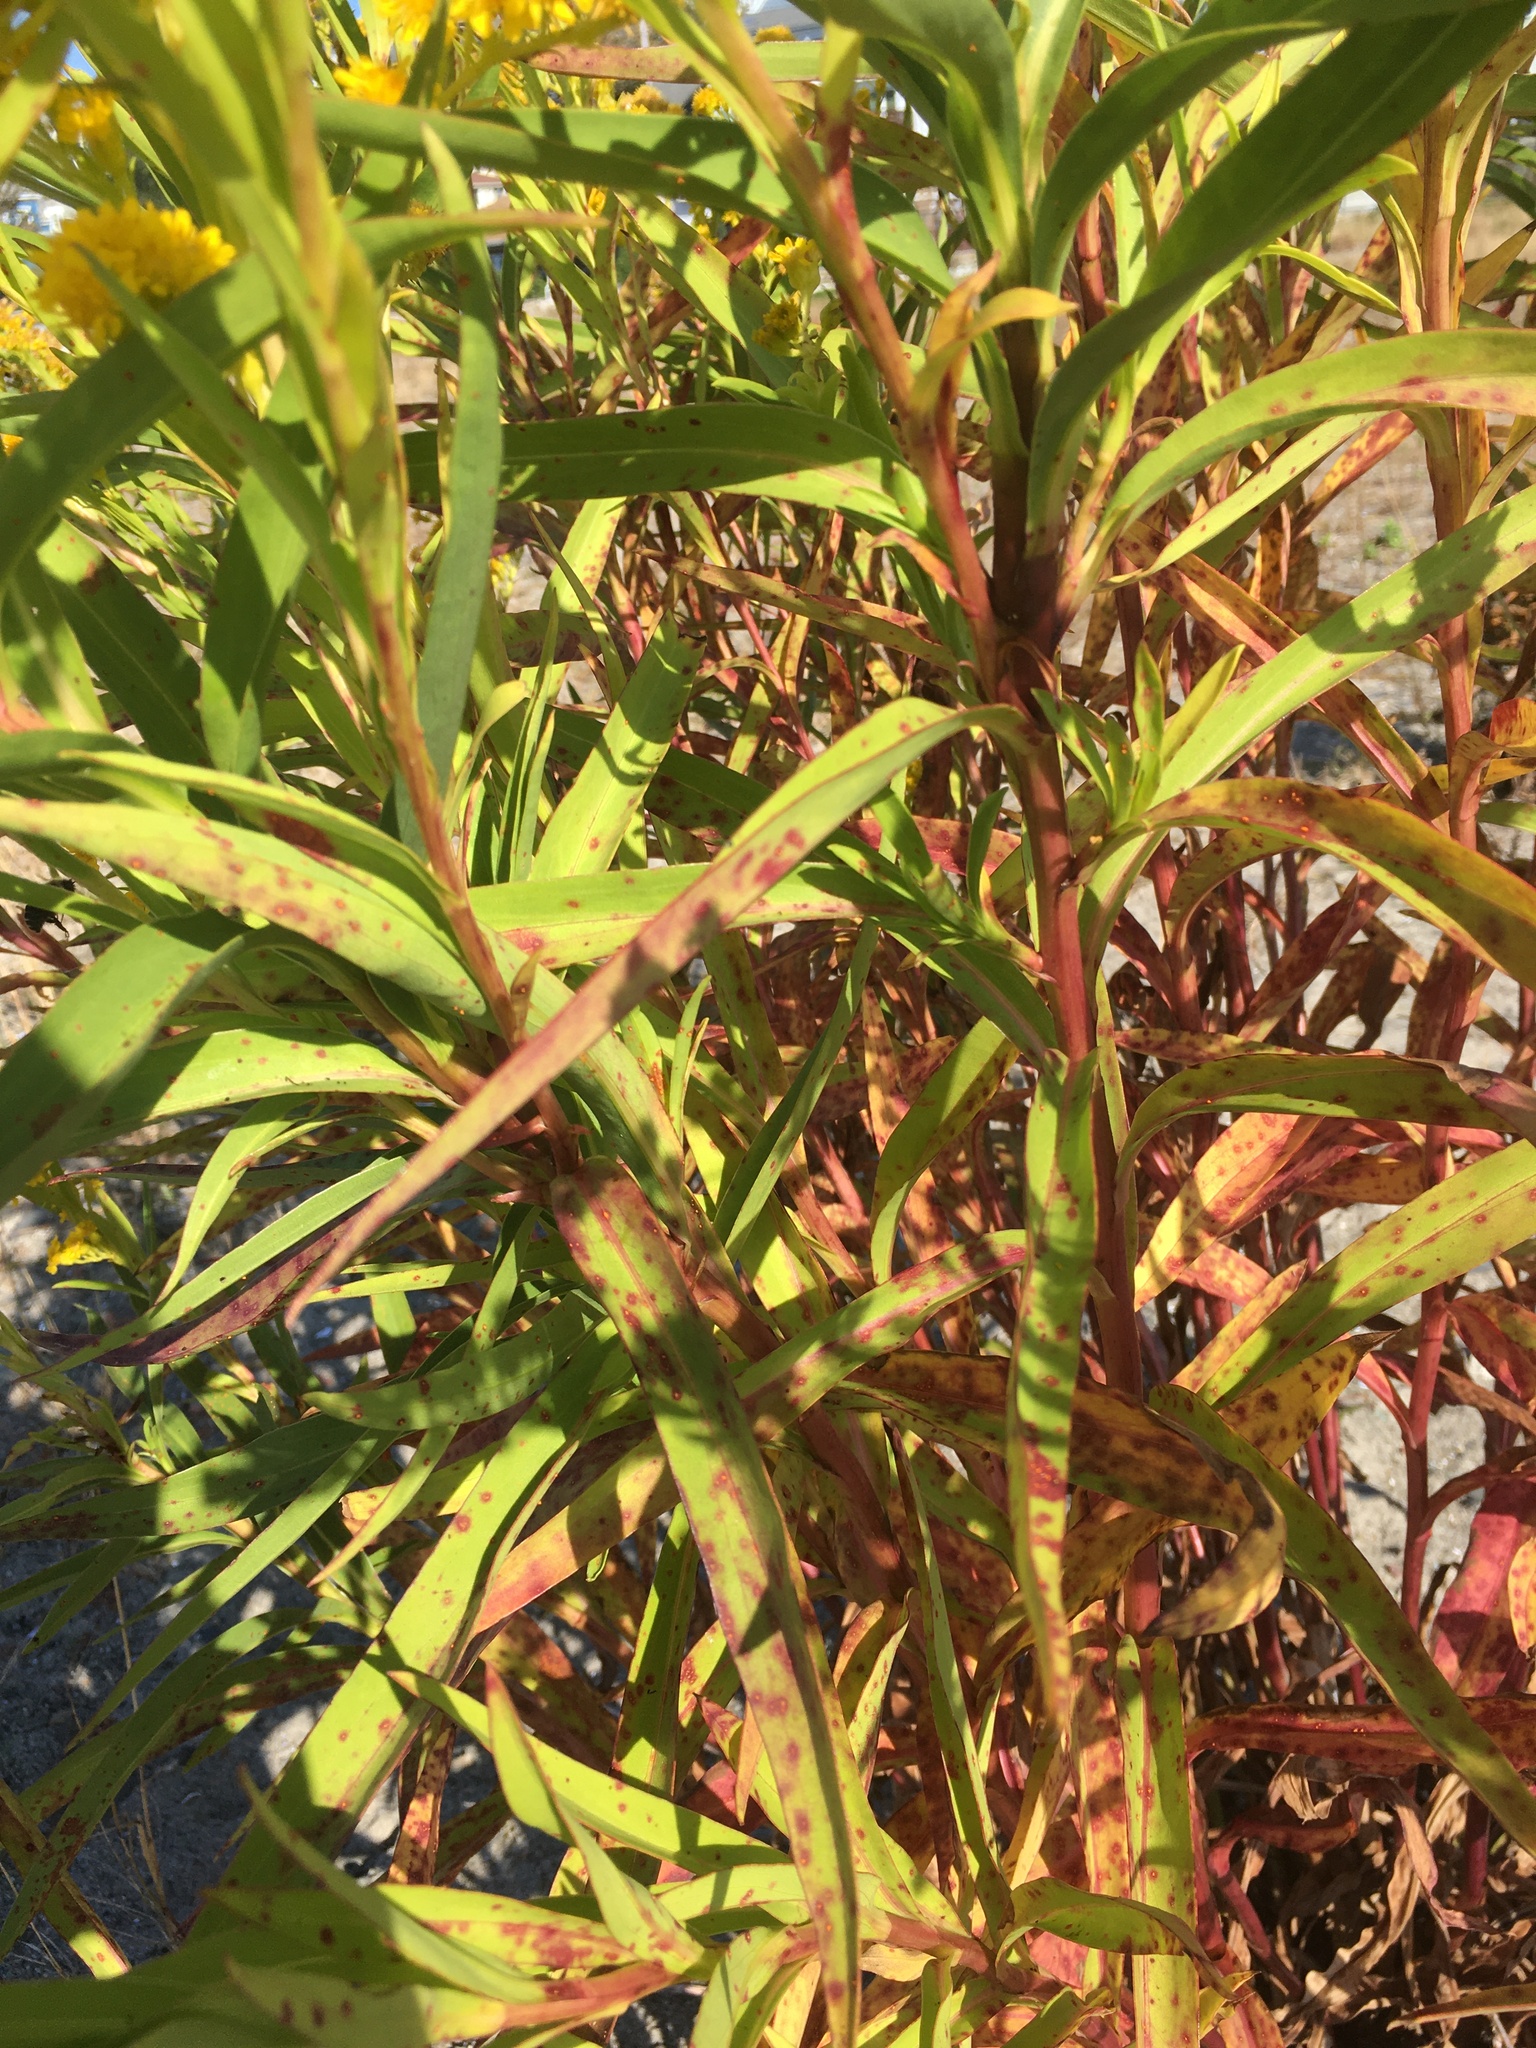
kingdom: Plantae
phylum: Tracheophyta
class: Magnoliopsida
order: Asterales
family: Asteraceae
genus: Solidago
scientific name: Solidago sempervirens
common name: Salt-marsh goldenrod
